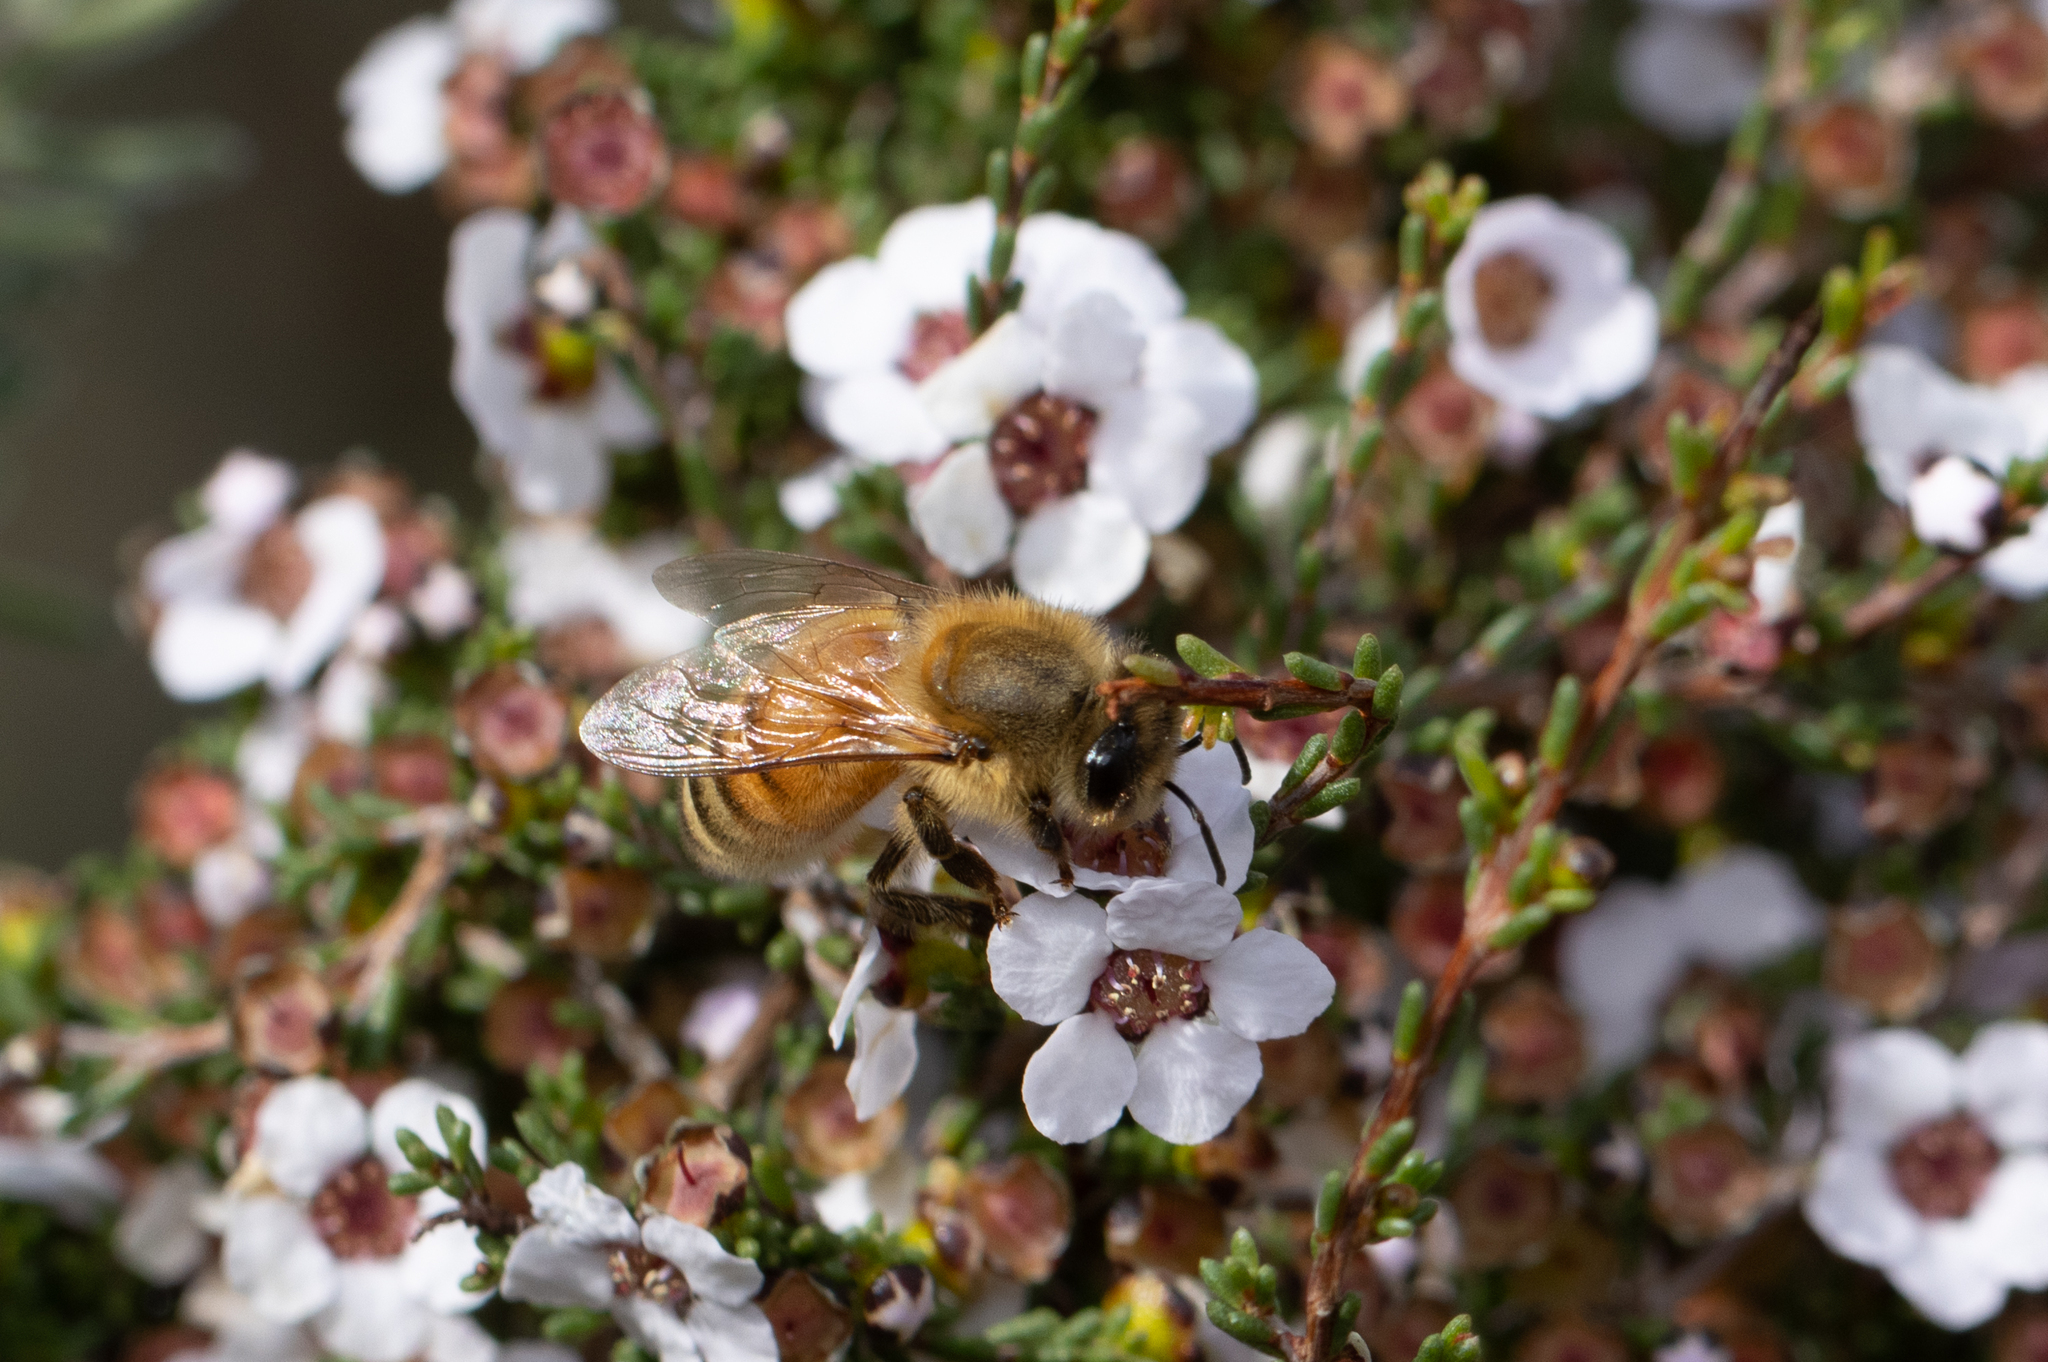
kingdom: Animalia
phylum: Arthropoda
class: Insecta
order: Hymenoptera
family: Apidae
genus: Apis
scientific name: Apis mellifera
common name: Honey bee
